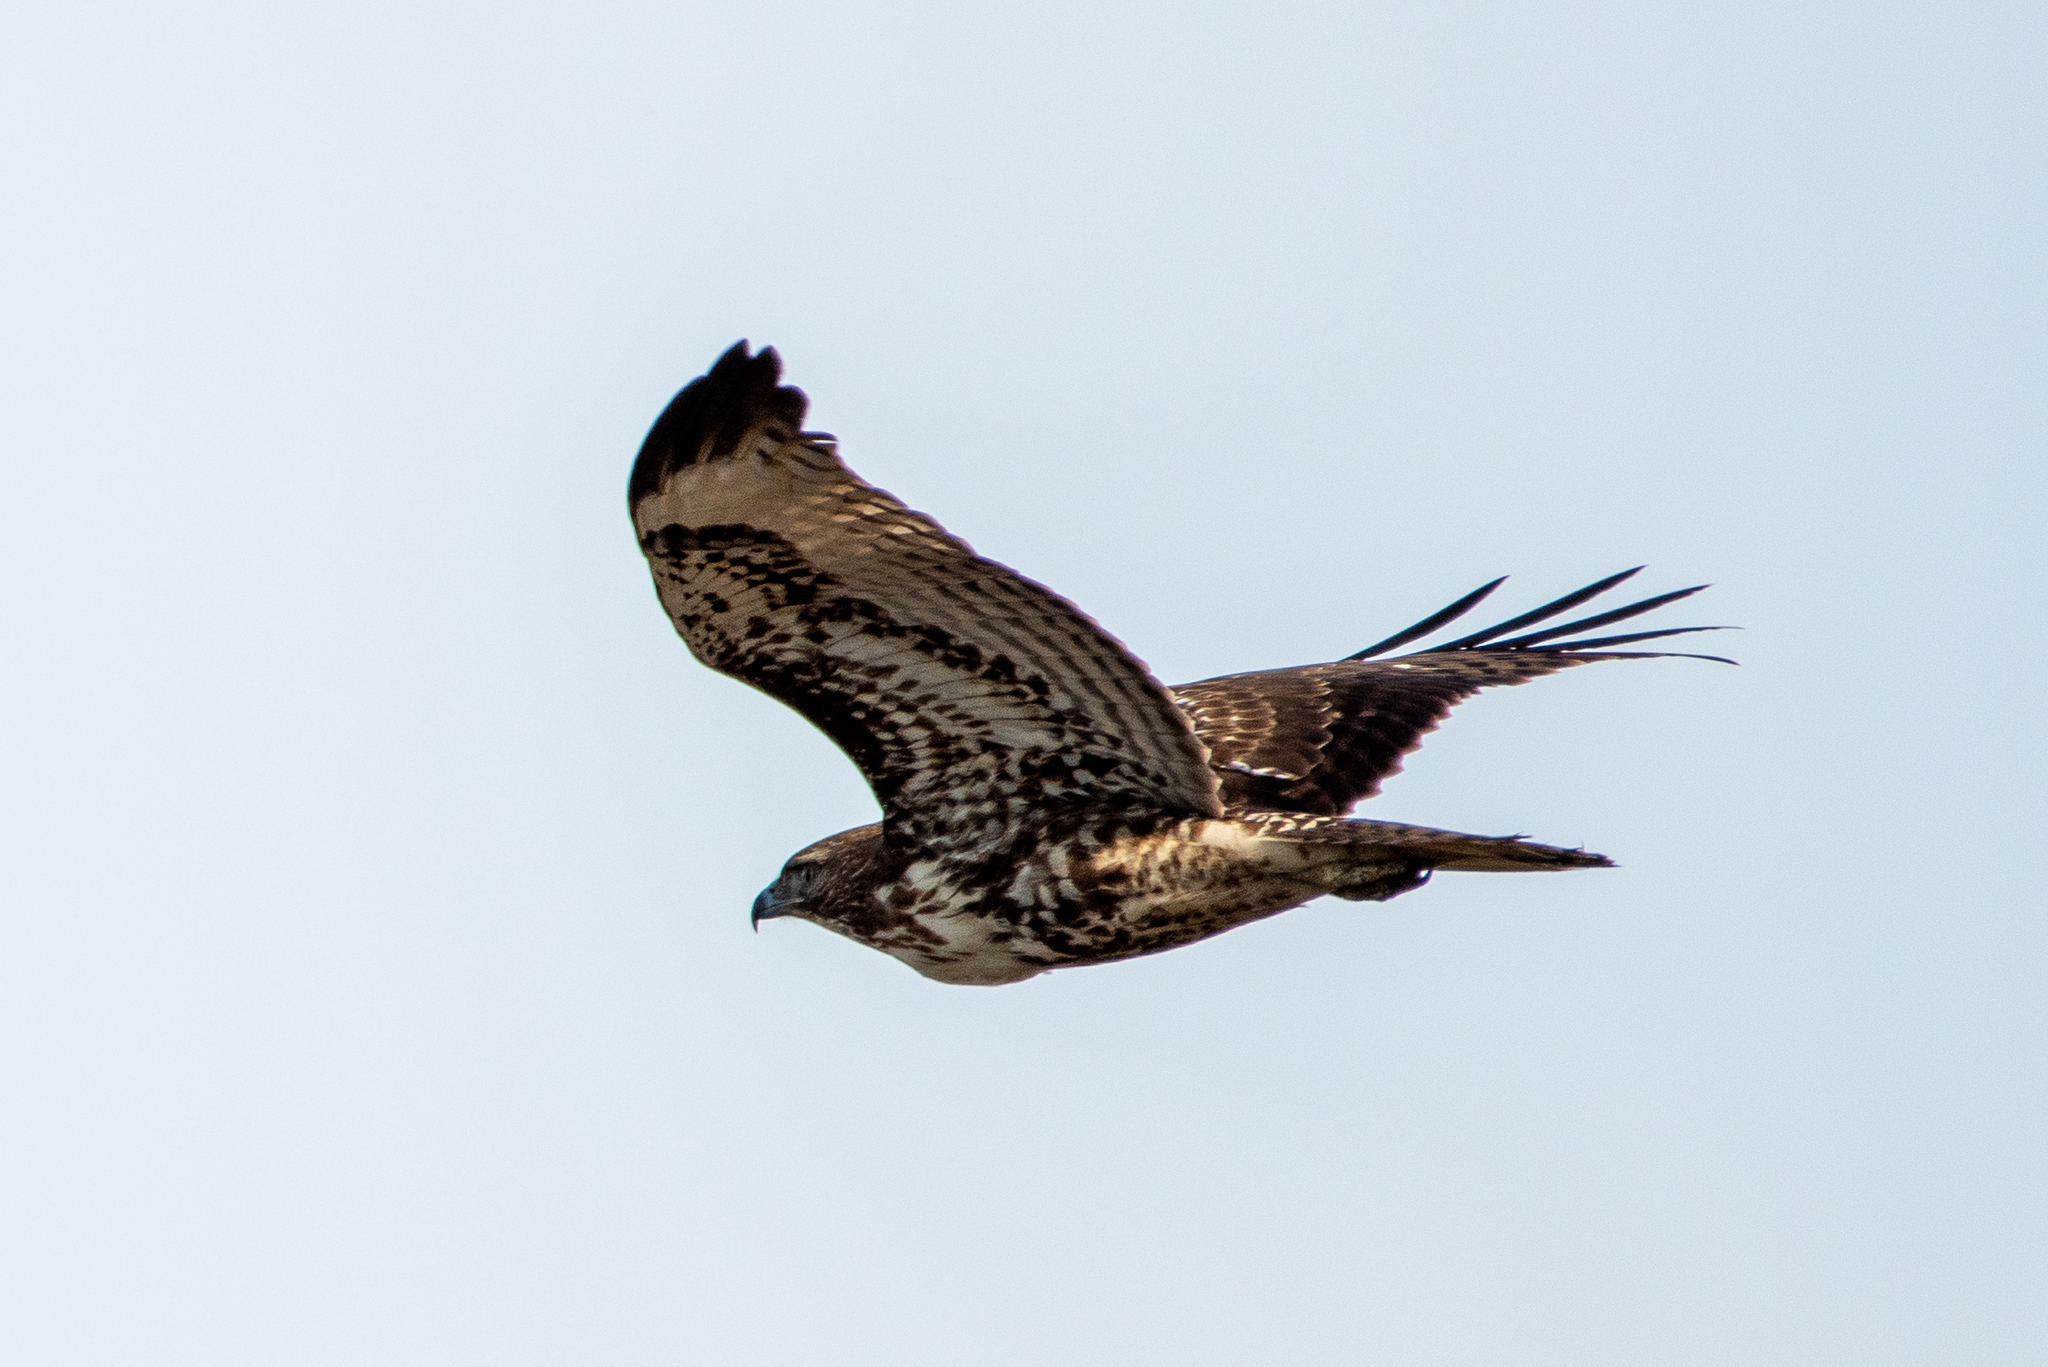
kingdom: Animalia
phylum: Chordata
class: Aves
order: Accipitriformes
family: Accipitridae
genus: Buteo
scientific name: Buteo jamaicensis
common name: Red-tailed hawk
